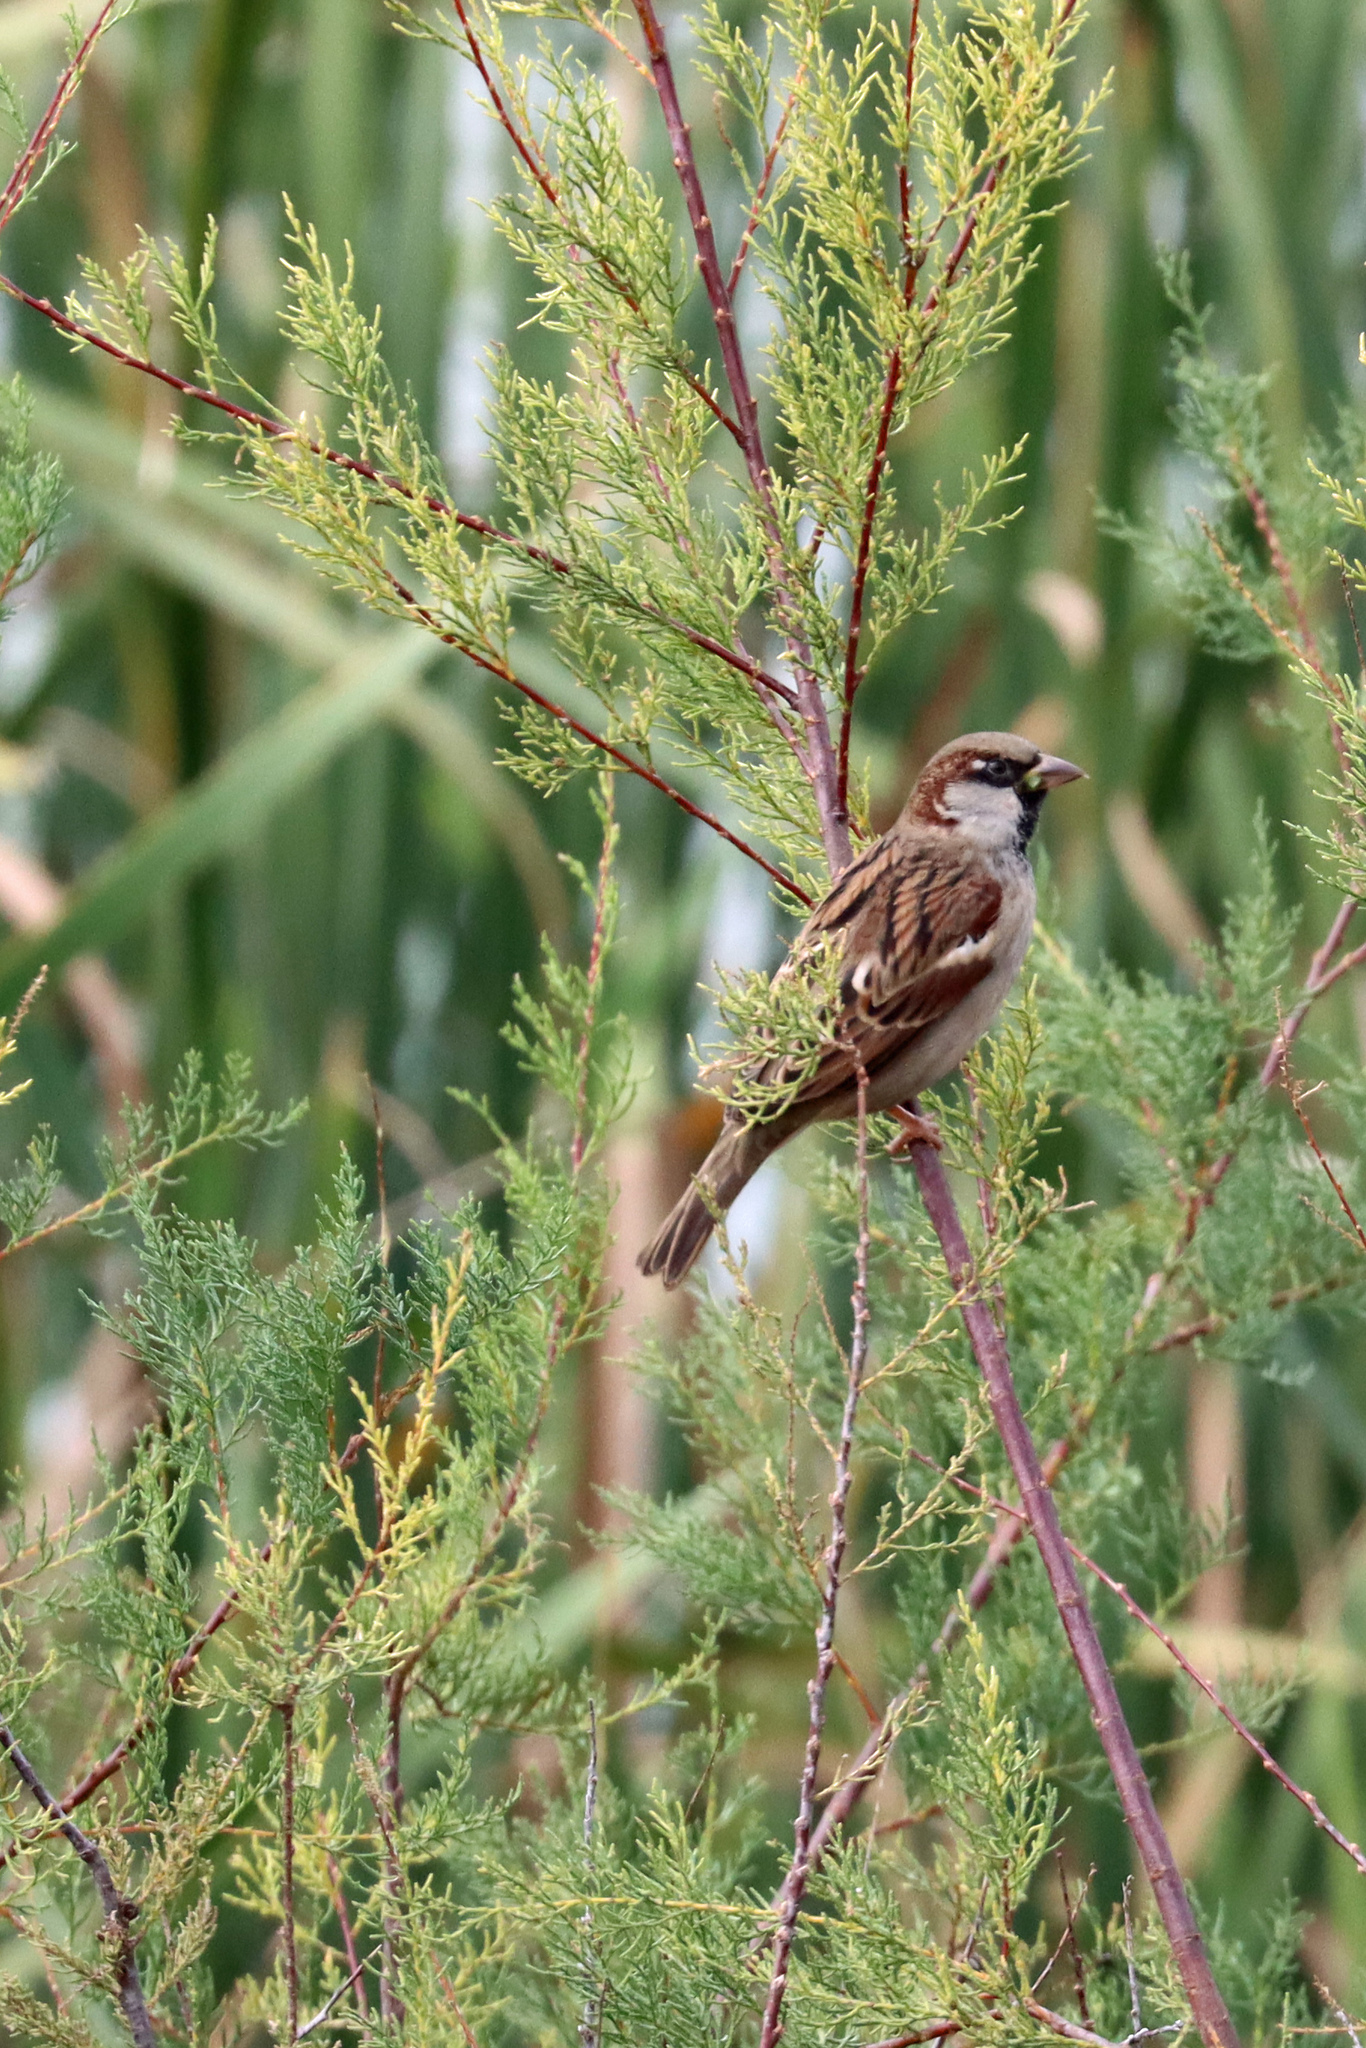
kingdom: Animalia
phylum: Chordata
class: Aves
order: Passeriformes
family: Passeridae
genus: Passer
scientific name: Passer domesticus
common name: House sparrow
